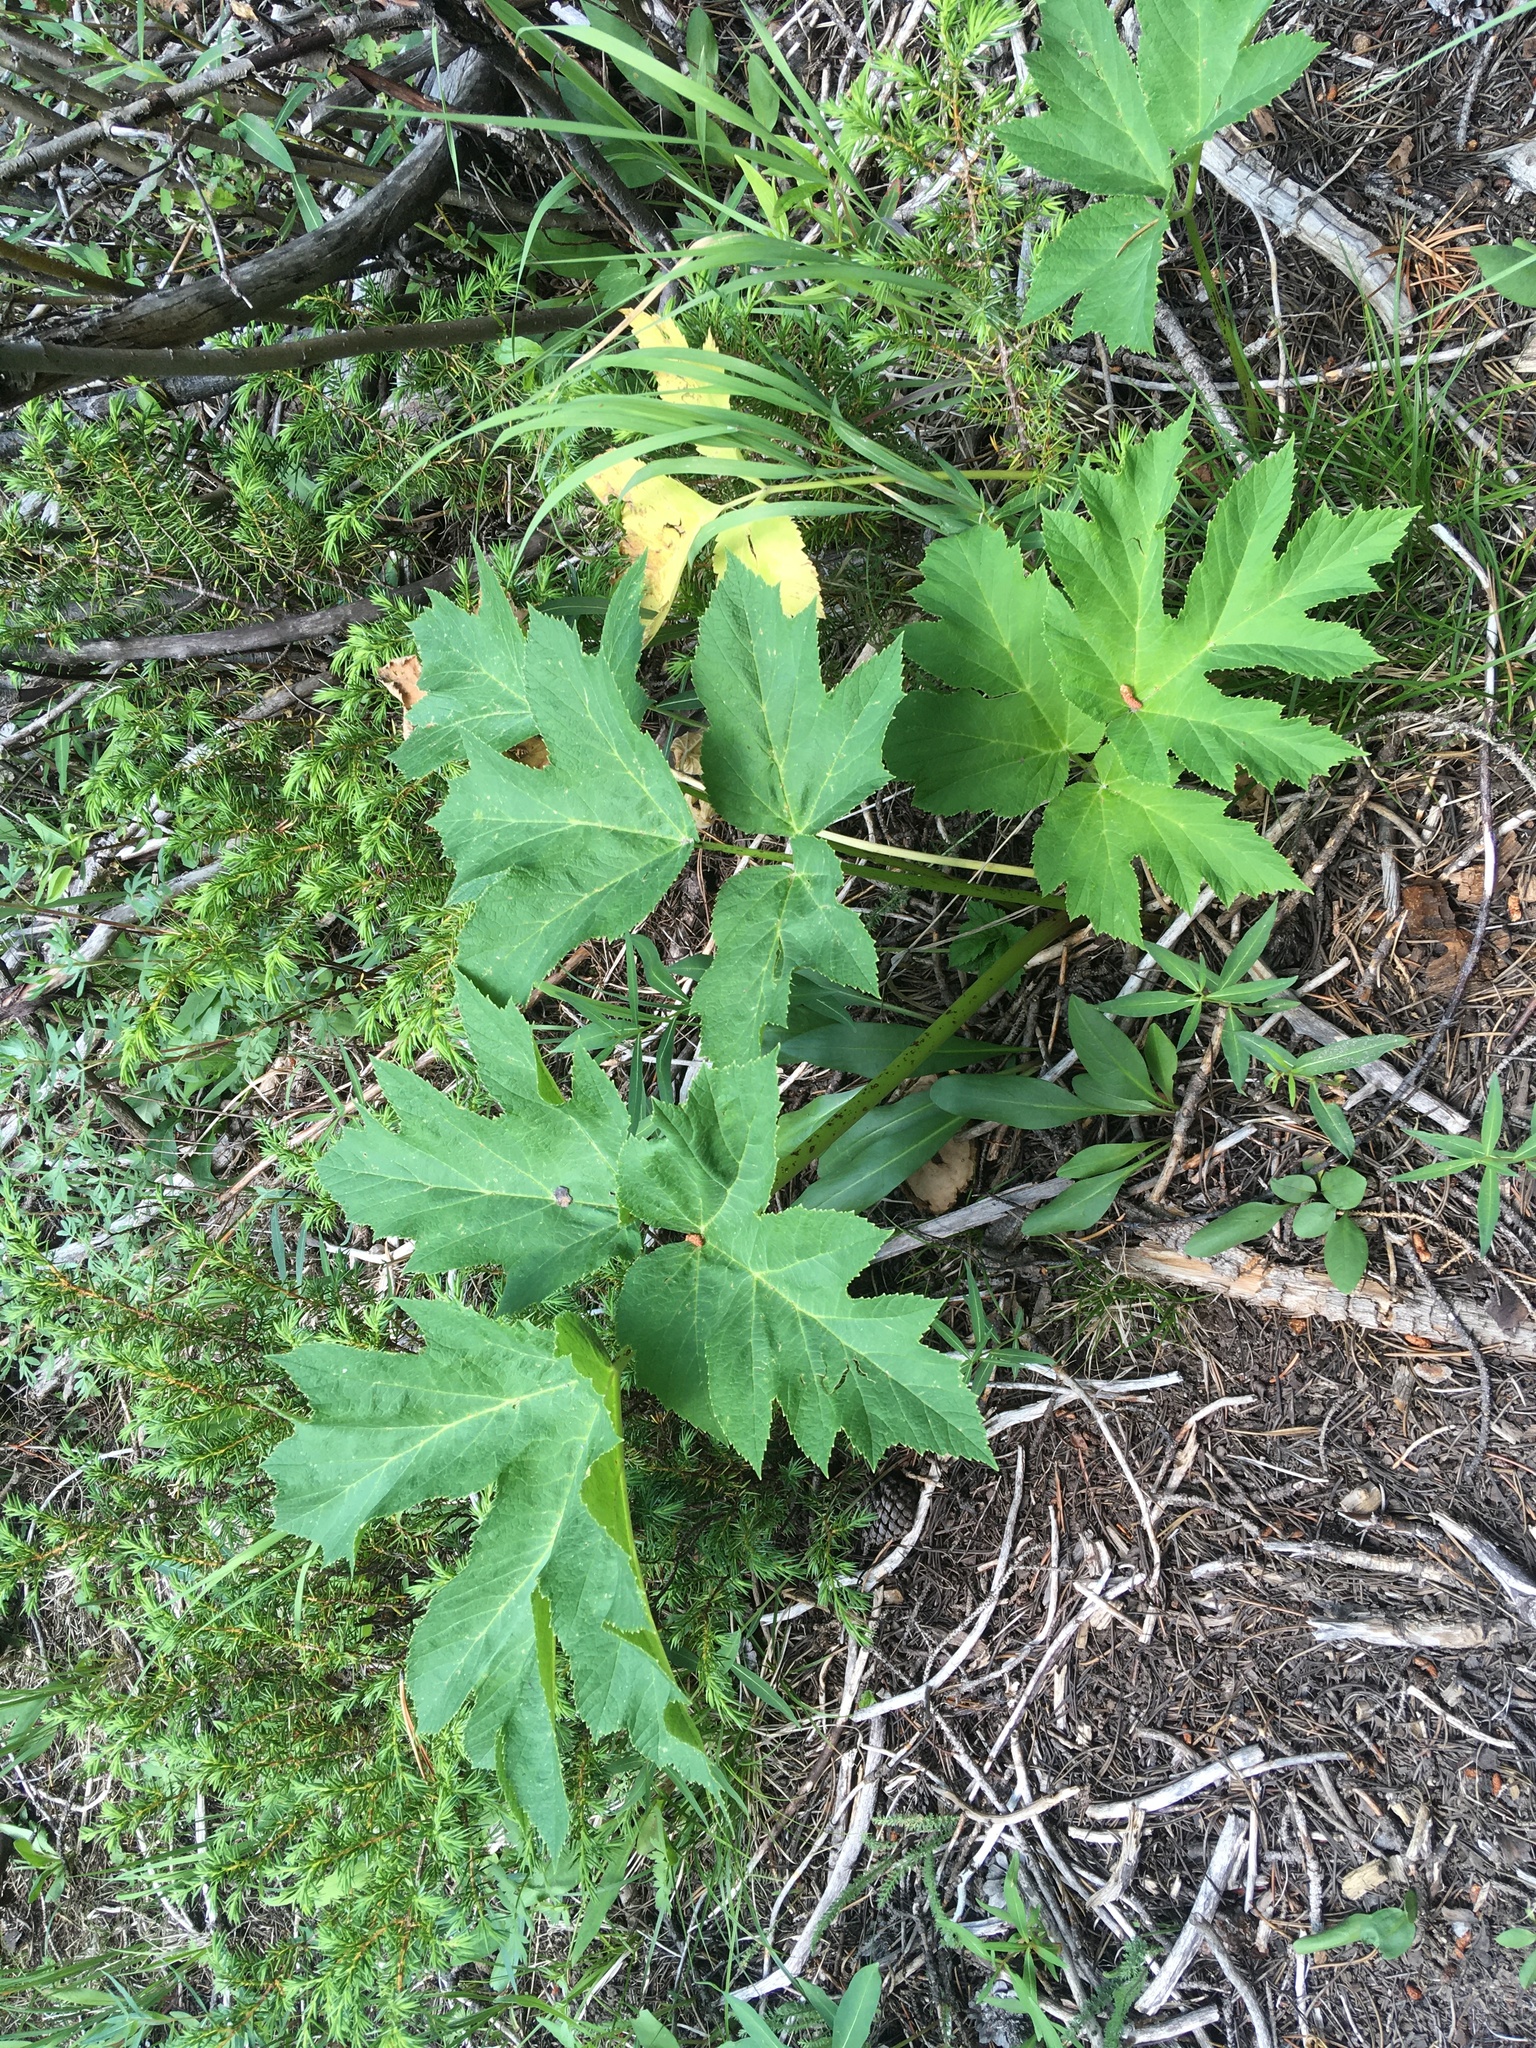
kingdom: Plantae
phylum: Tracheophyta
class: Magnoliopsida
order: Apiales
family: Apiaceae
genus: Heracleum
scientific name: Heracleum maximum
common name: American cow parsnip
